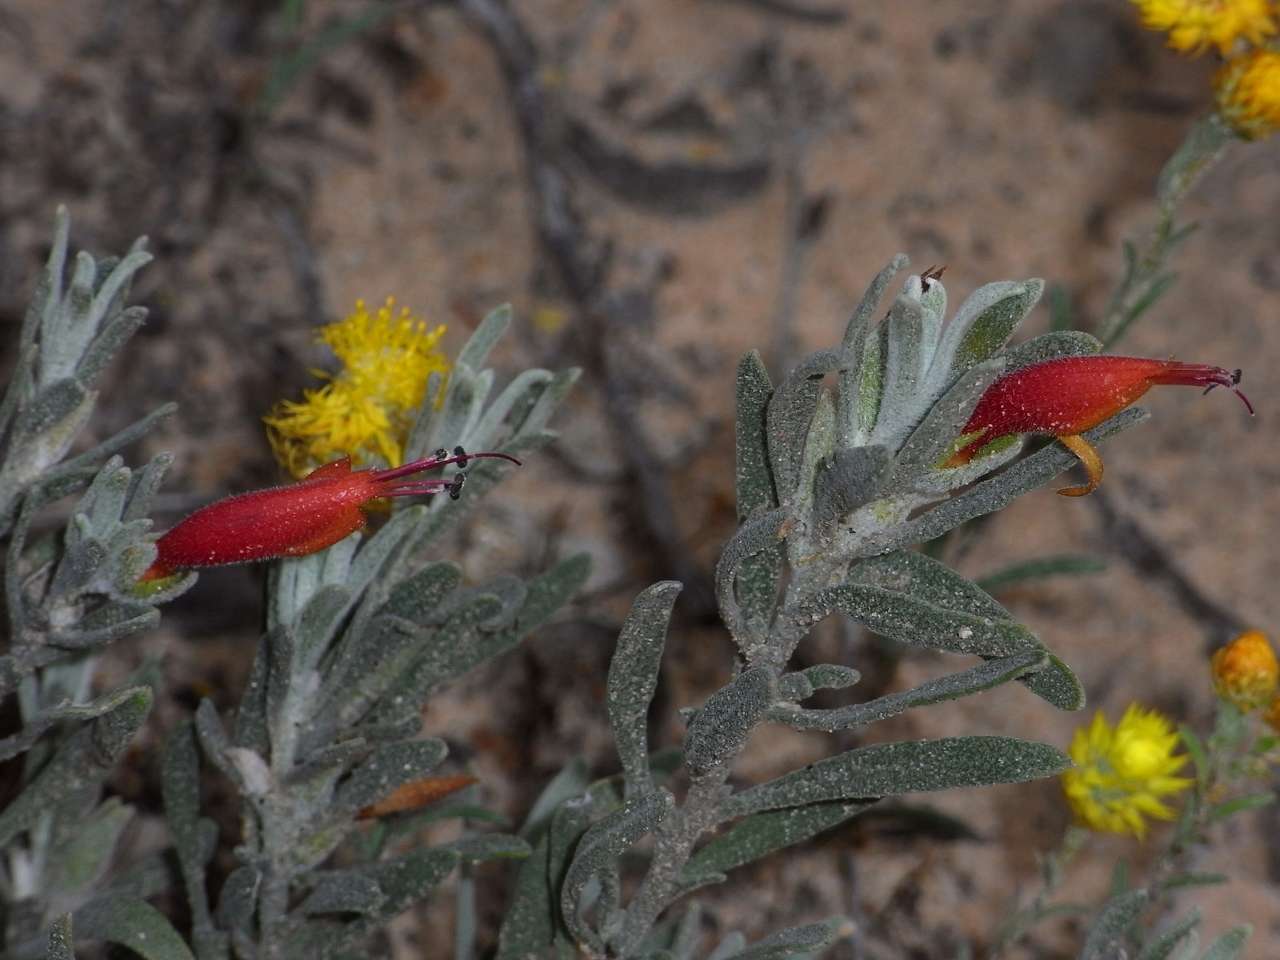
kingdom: Plantae
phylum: Tracheophyta
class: Magnoliopsida
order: Lamiales
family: Scrophulariaceae
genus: Eremophila
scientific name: Eremophila glabra
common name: Black-fuchsia
